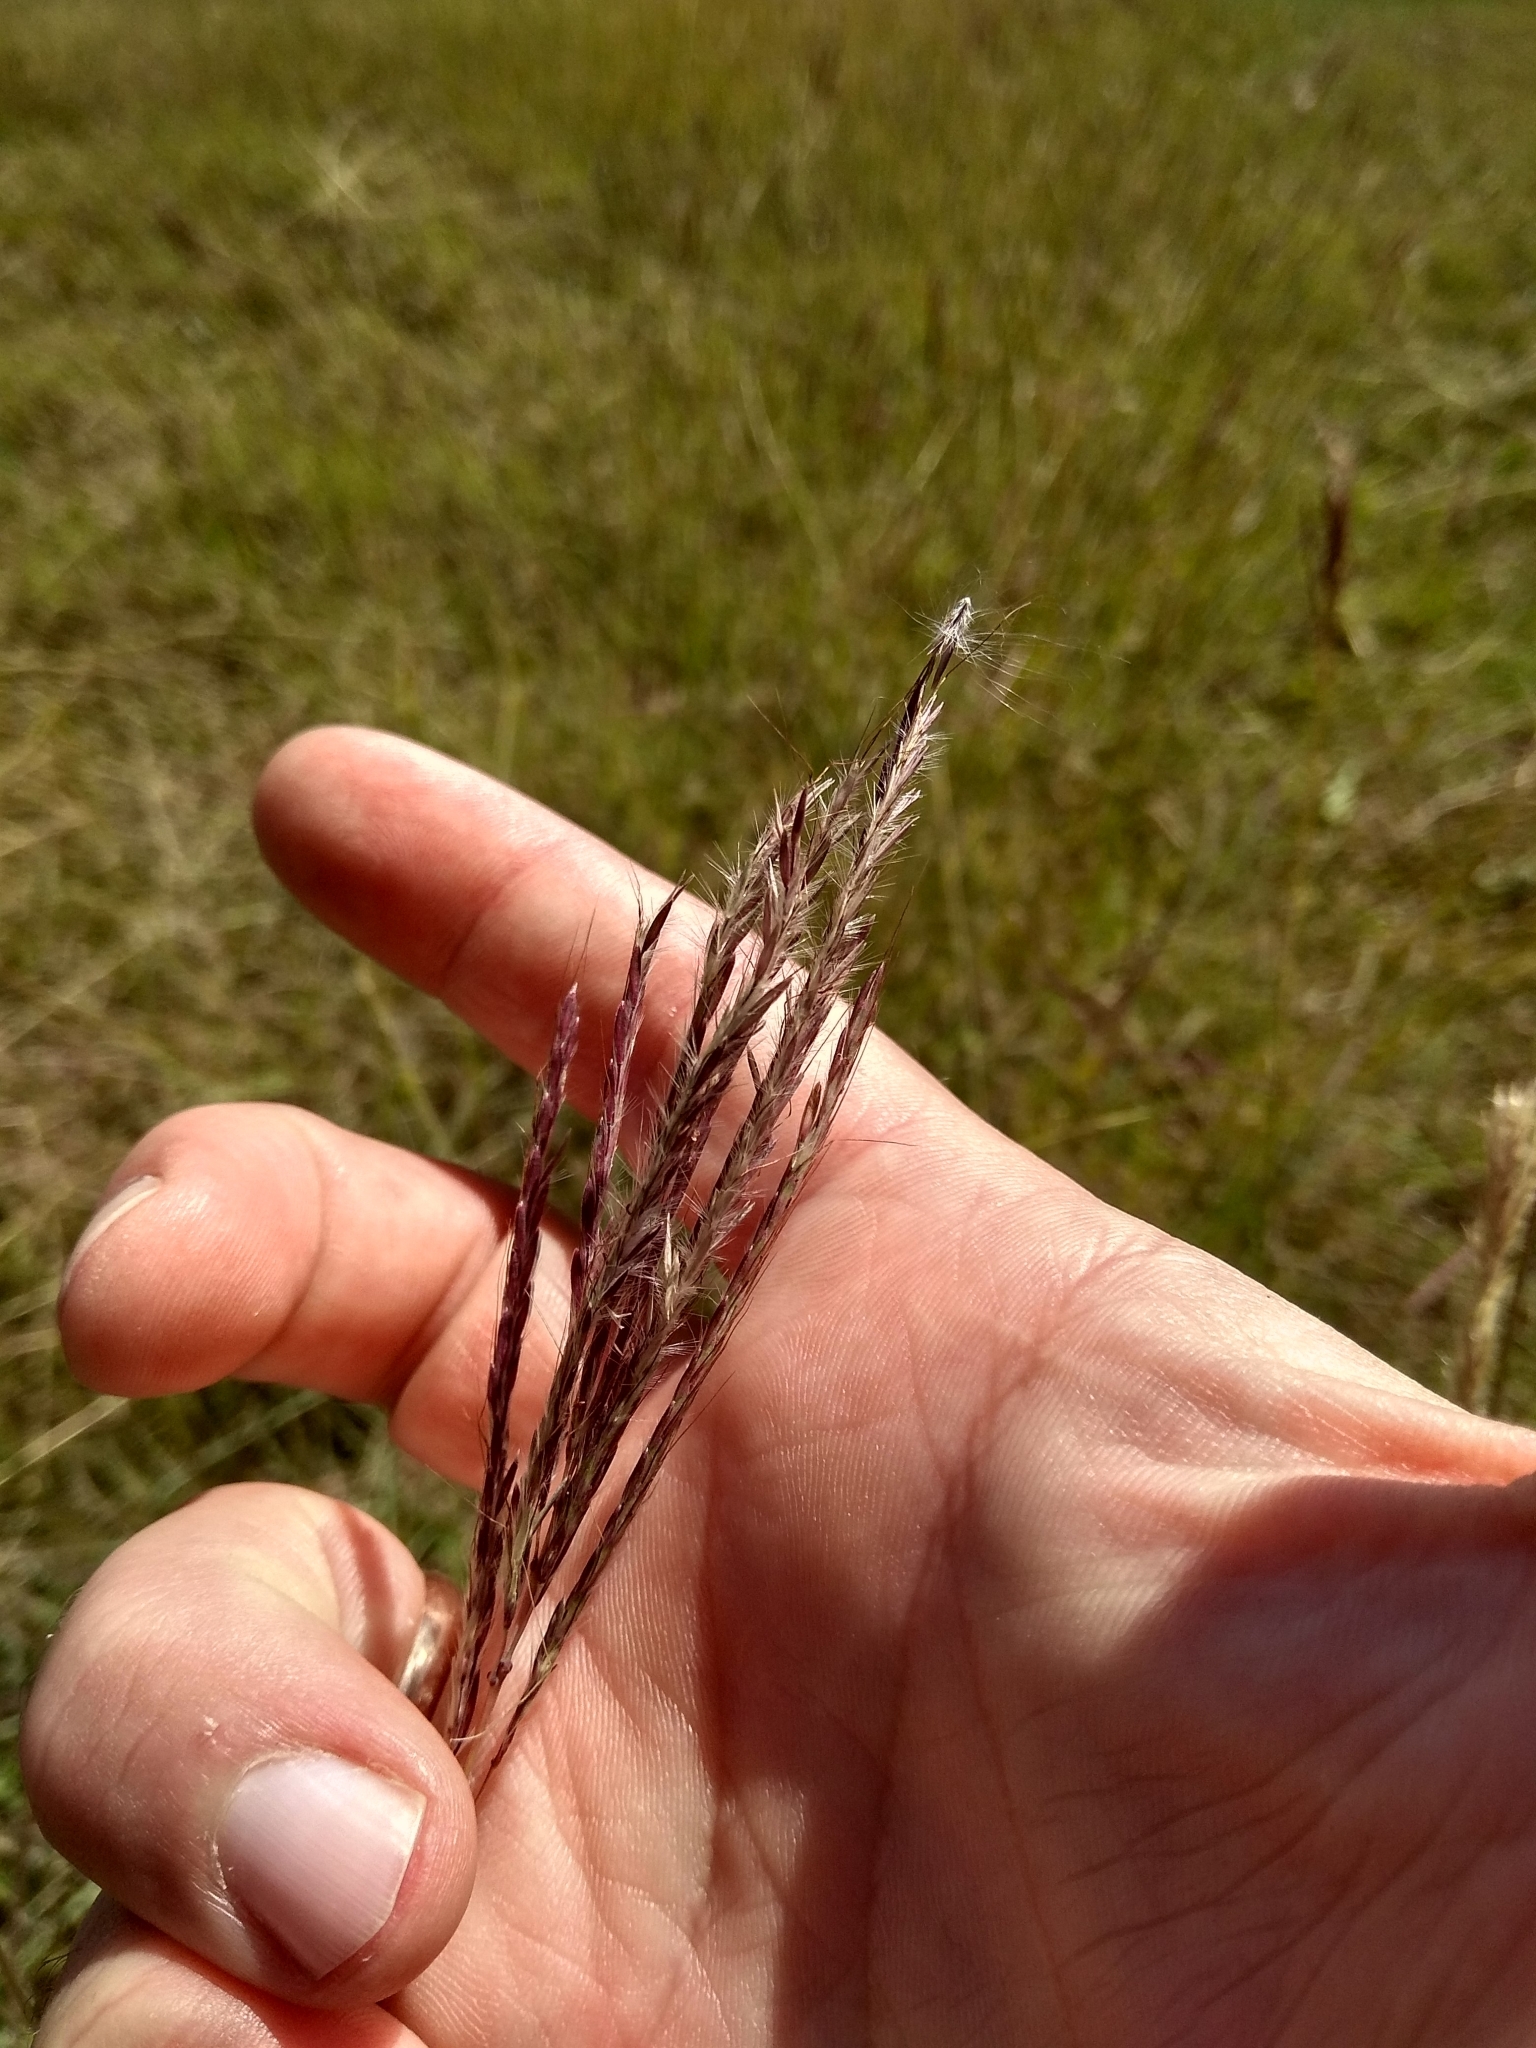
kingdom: Plantae
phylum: Tracheophyta
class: Liliopsida
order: Poales
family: Poaceae
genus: Bothriochloa
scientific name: Bothriochloa ischaemum
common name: Yellow bluestem
